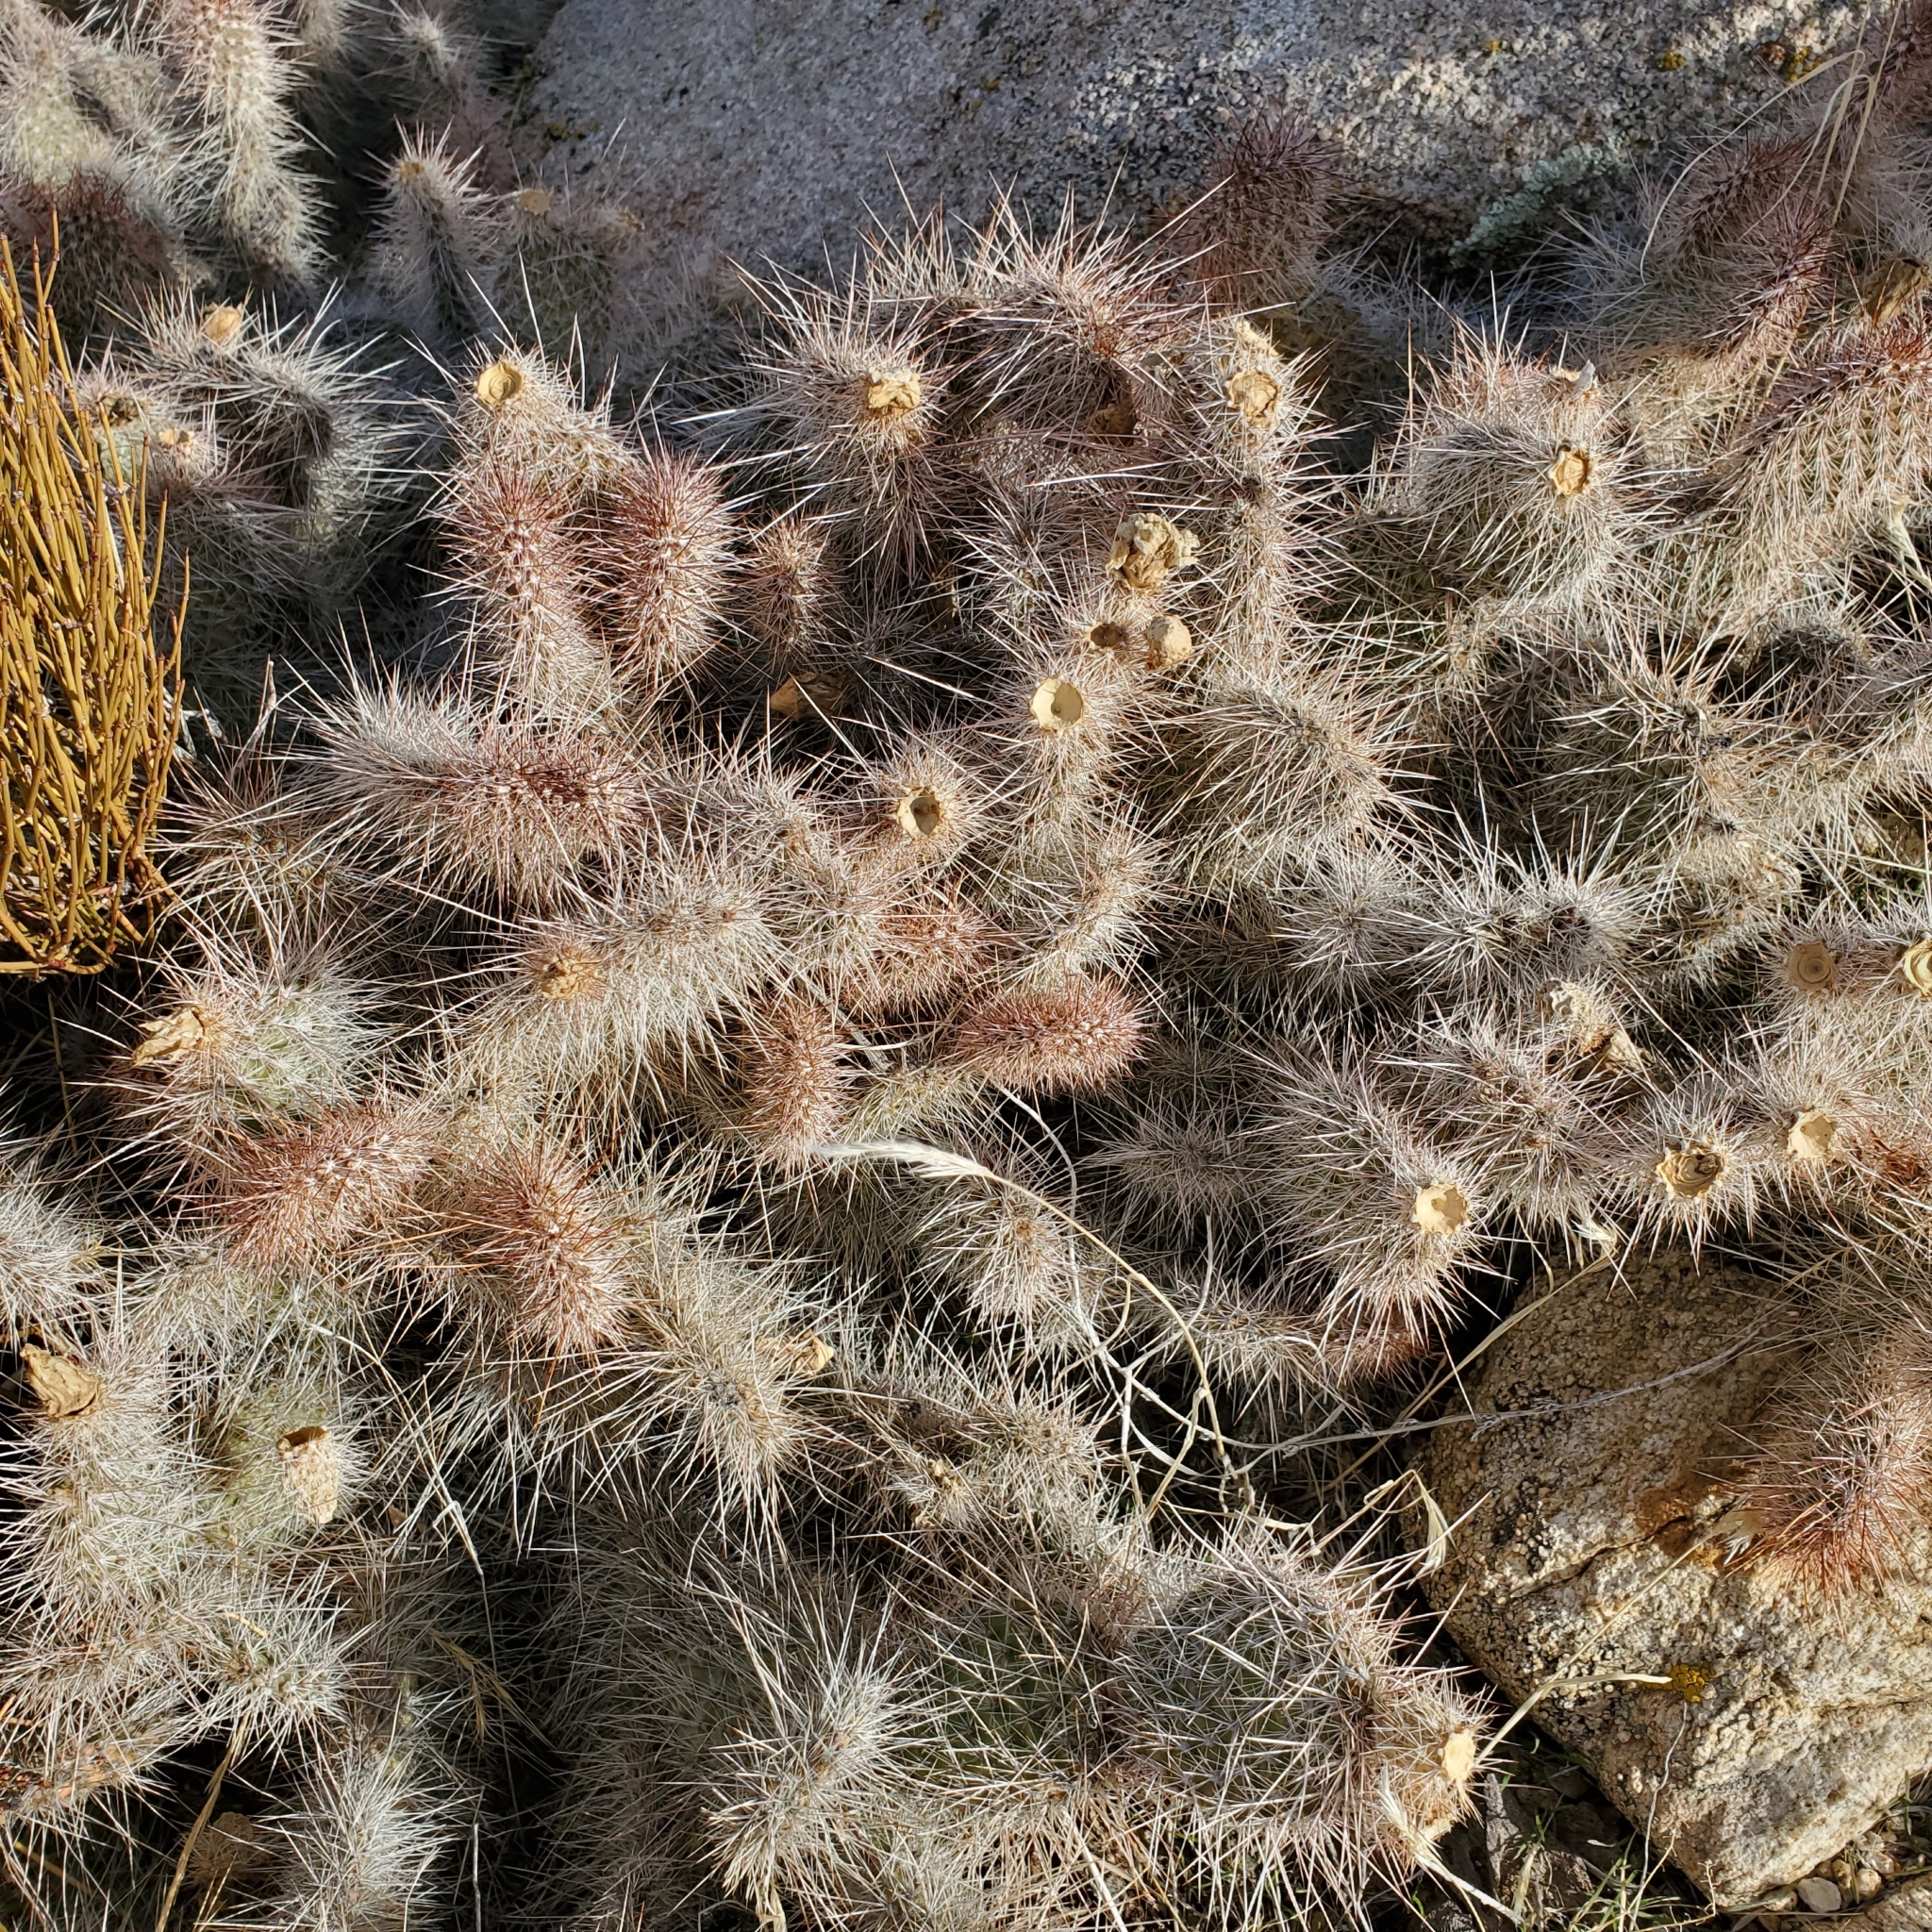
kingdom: Plantae
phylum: Tracheophyta
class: Magnoliopsida
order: Caryophyllales
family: Cactaceae
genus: Opuntia
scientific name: Opuntia polyacantha
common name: Plains prickly-pear
